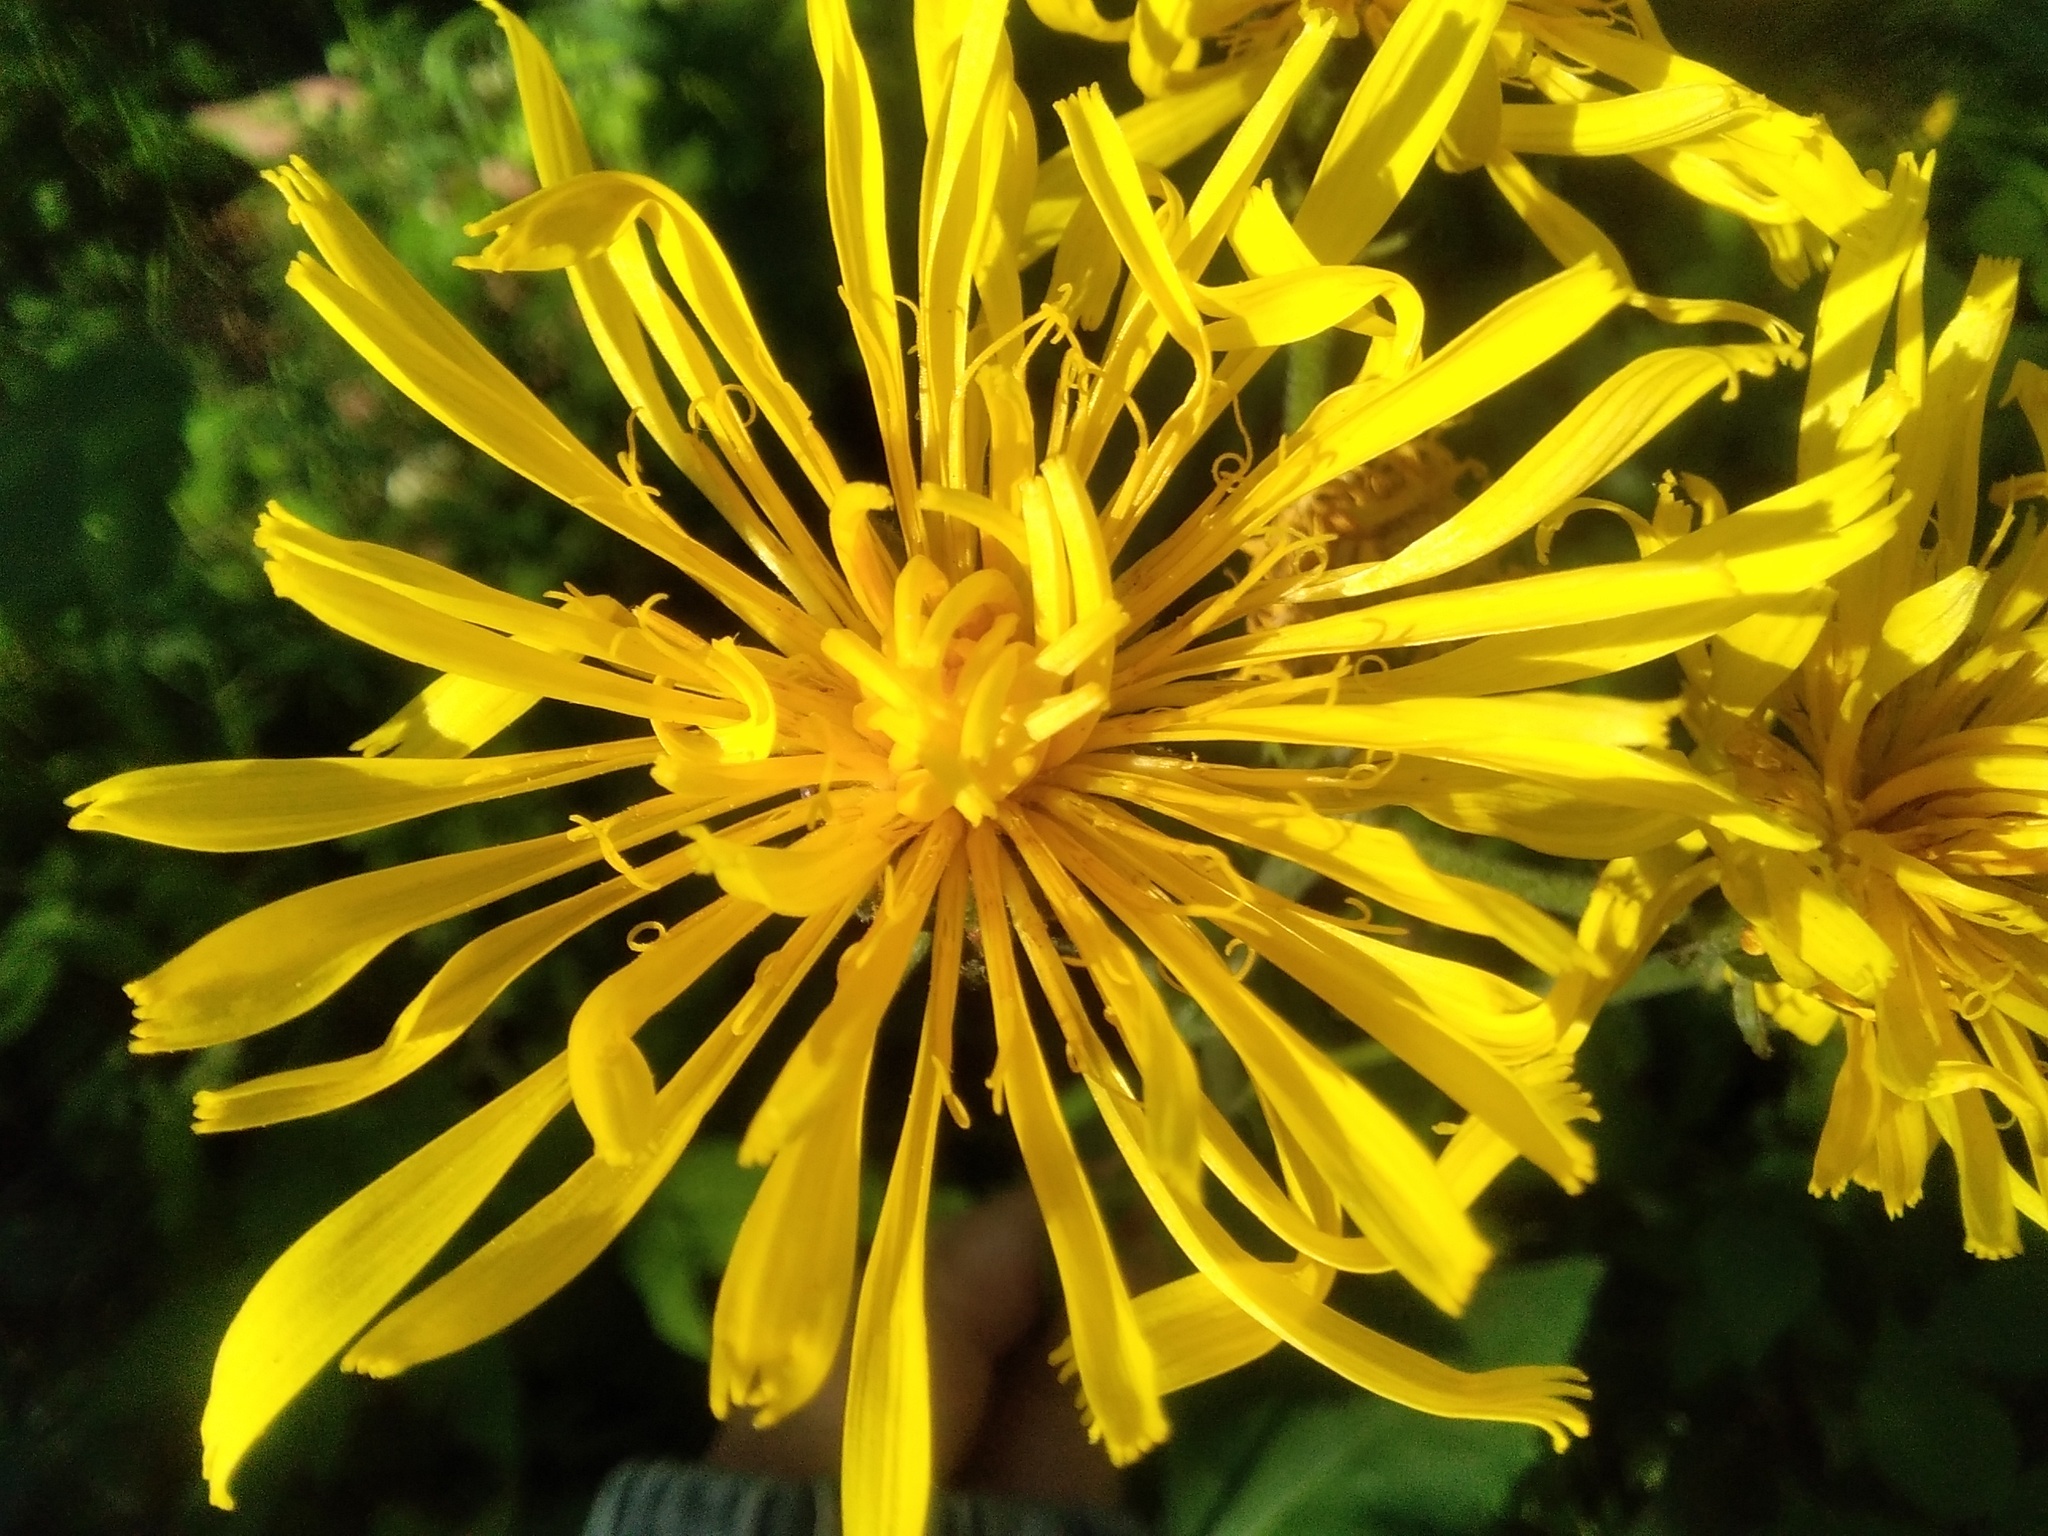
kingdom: Plantae
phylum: Tracheophyta
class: Magnoliopsida
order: Asterales
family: Asteraceae
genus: Crepis
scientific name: Crepis sibirica
